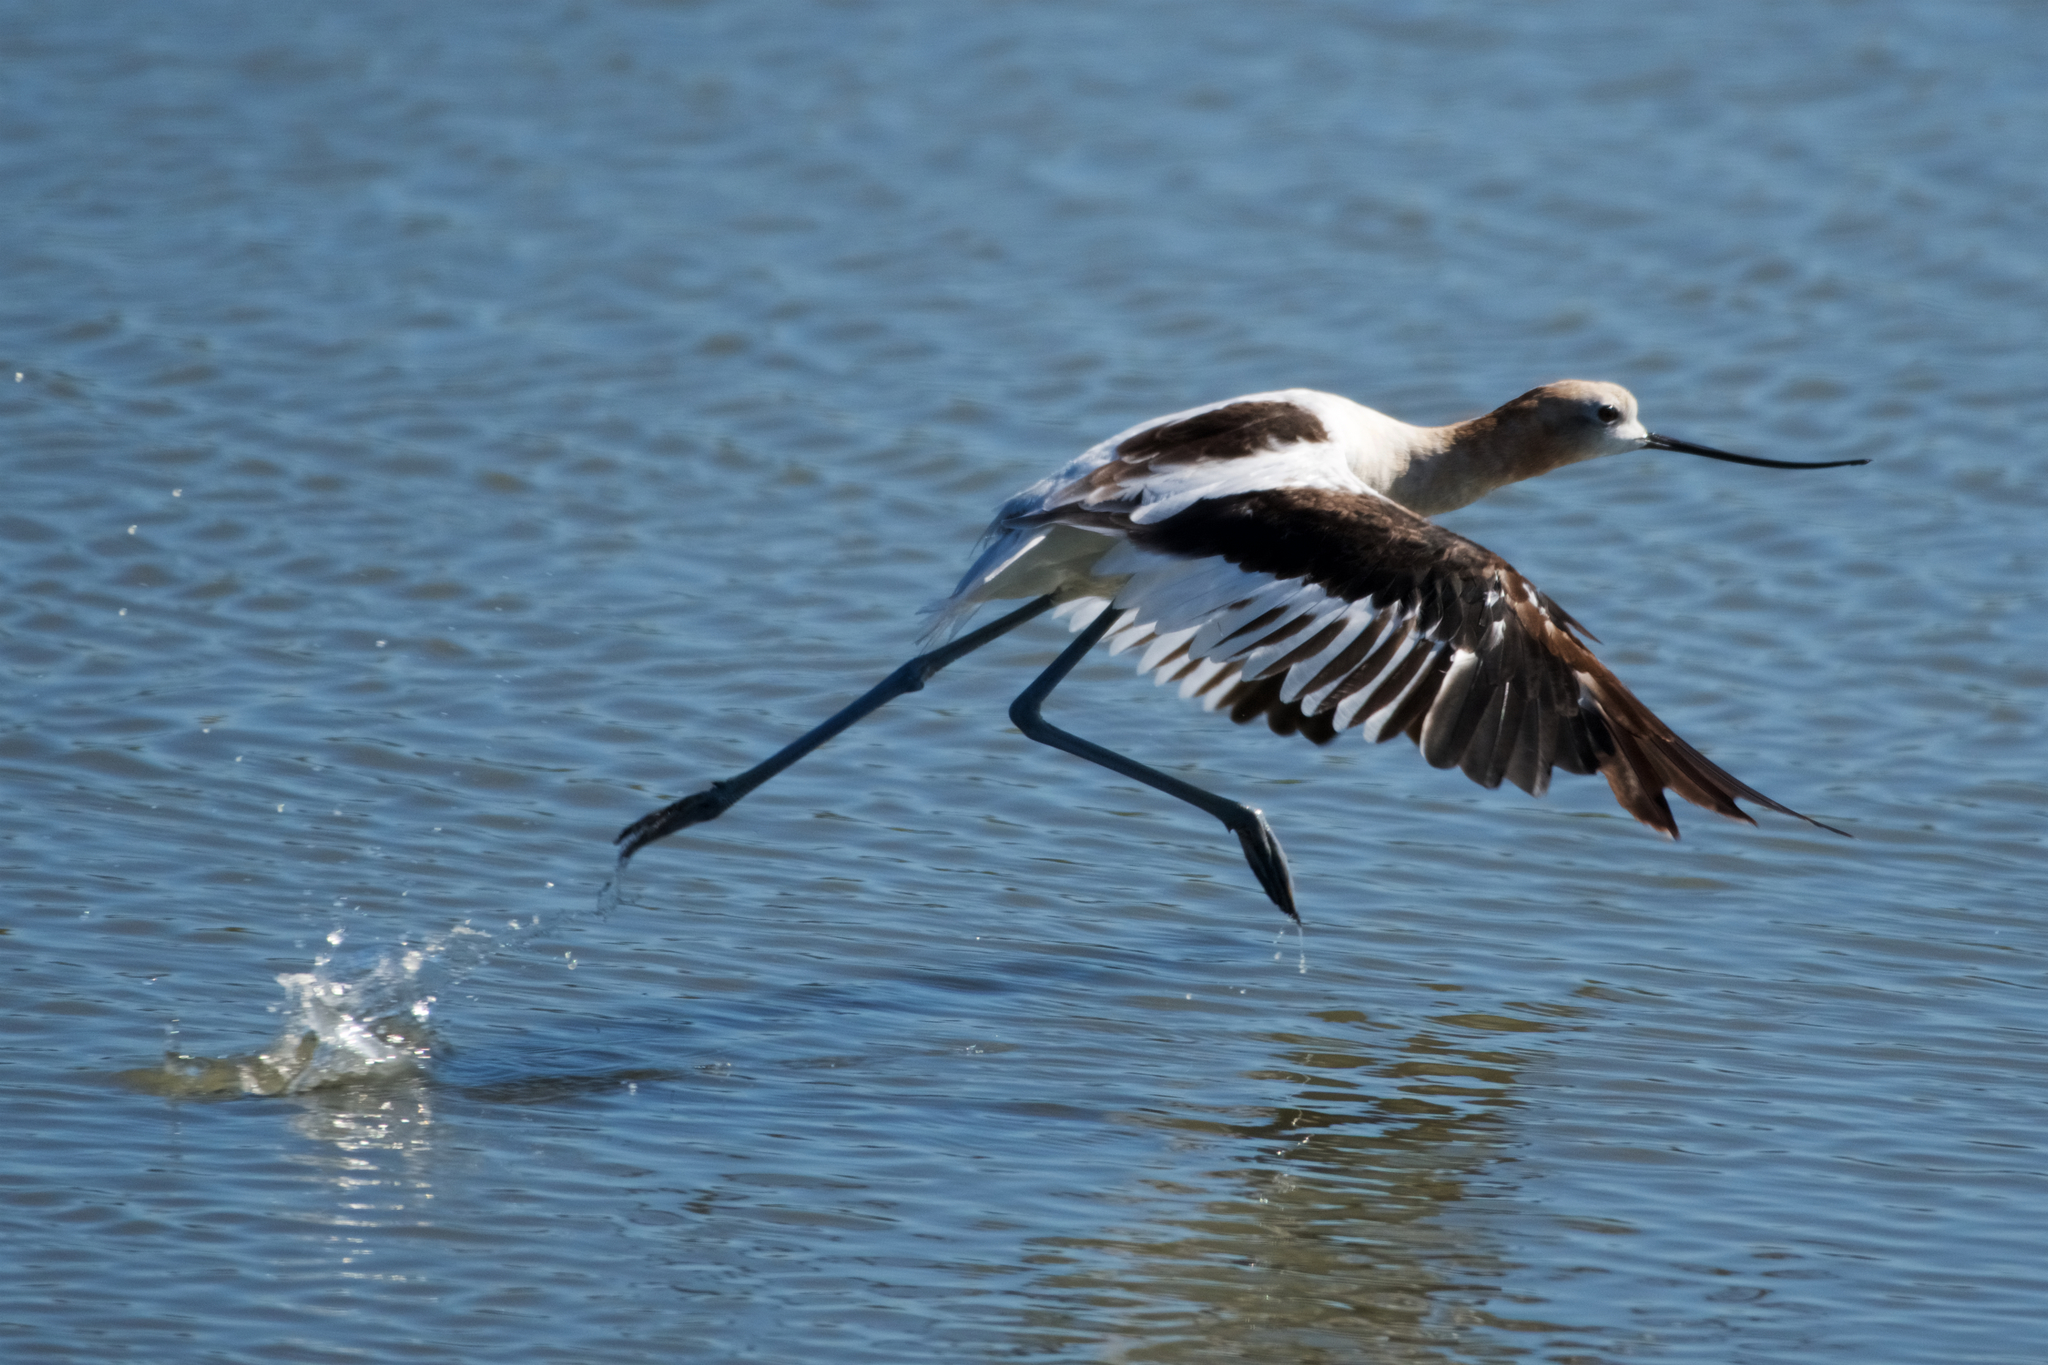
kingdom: Animalia
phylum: Chordata
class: Aves
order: Charadriiformes
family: Recurvirostridae
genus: Recurvirostra
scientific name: Recurvirostra americana
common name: American avocet
